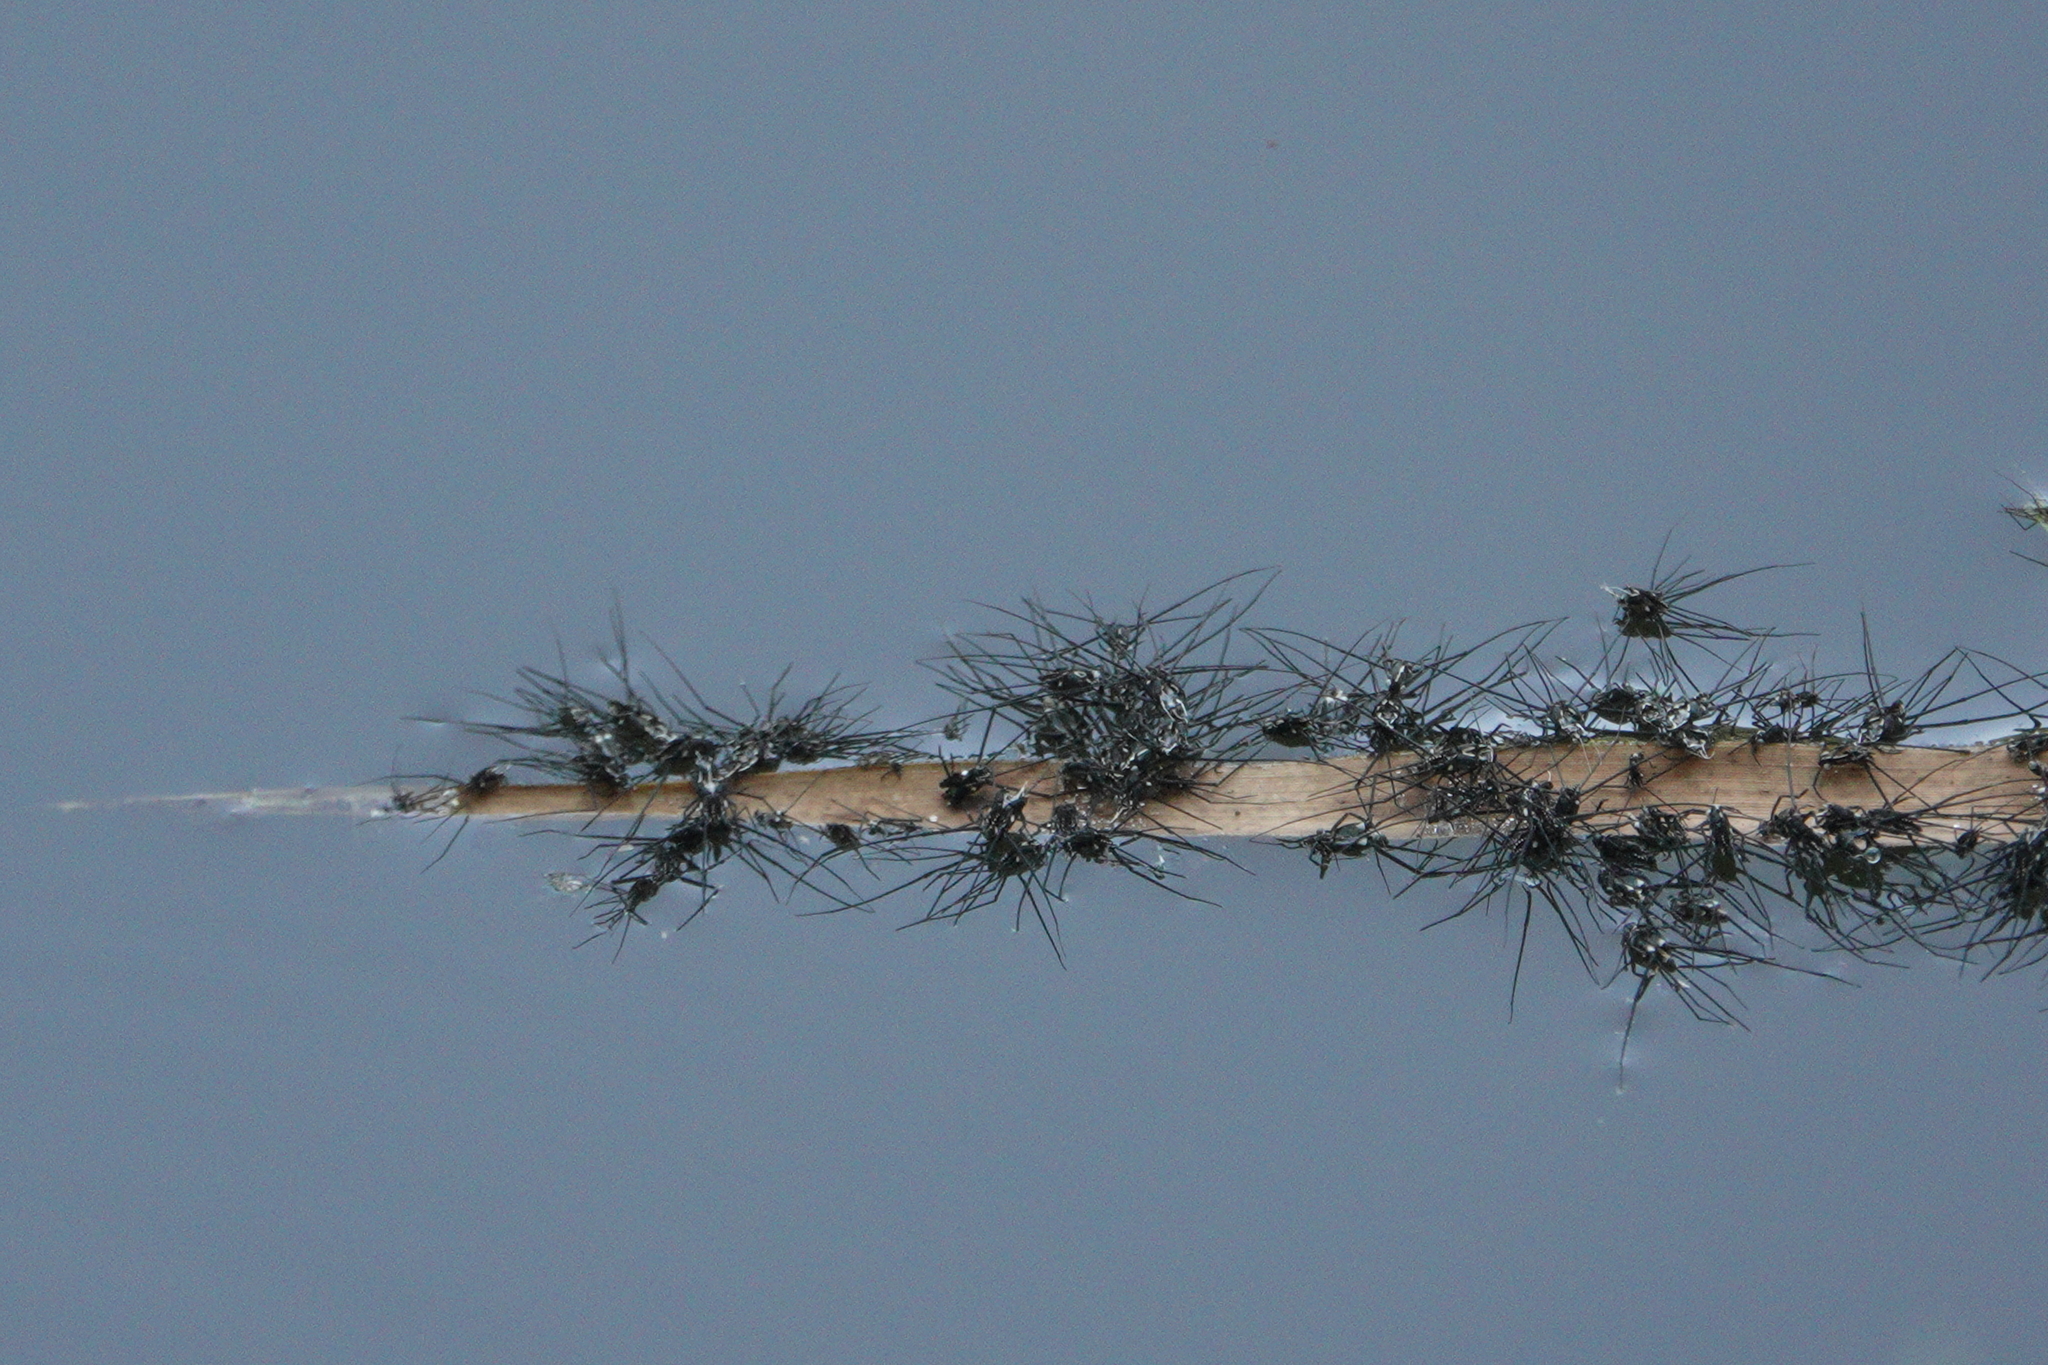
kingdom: Animalia
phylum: Arthropoda
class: Insecta
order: Hemiptera
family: Gerridae
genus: Trepobates
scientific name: Trepobates subnitidus
